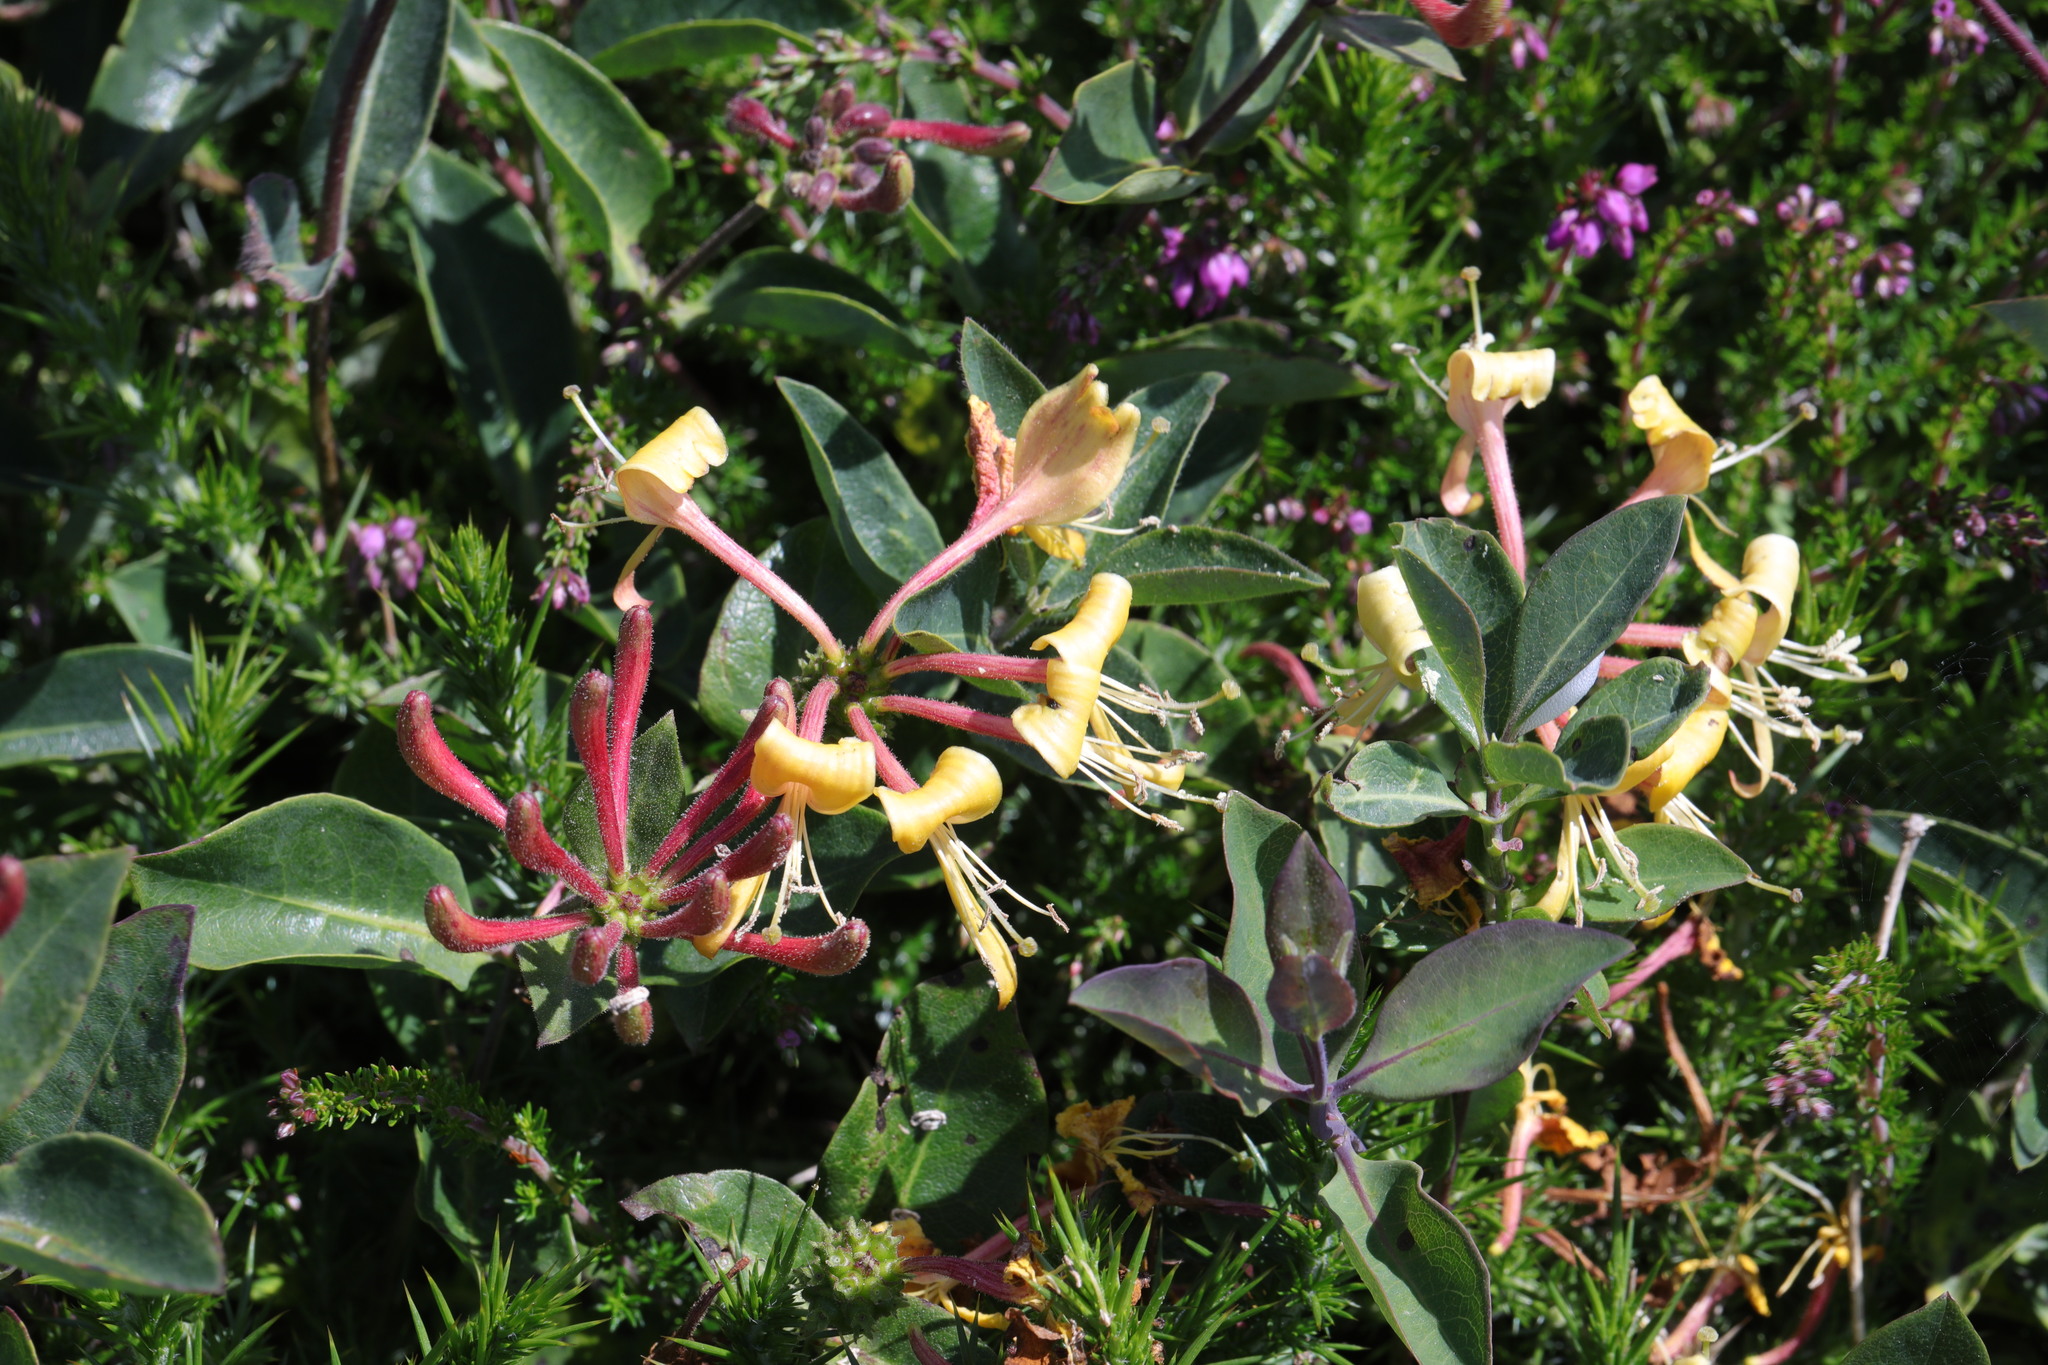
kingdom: Plantae
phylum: Tracheophyta
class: Magnoliopsida
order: Dipsacales
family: Caprifoliaceae
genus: Lonicera
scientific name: Lonicera periclymenum
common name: European honeysuckle
